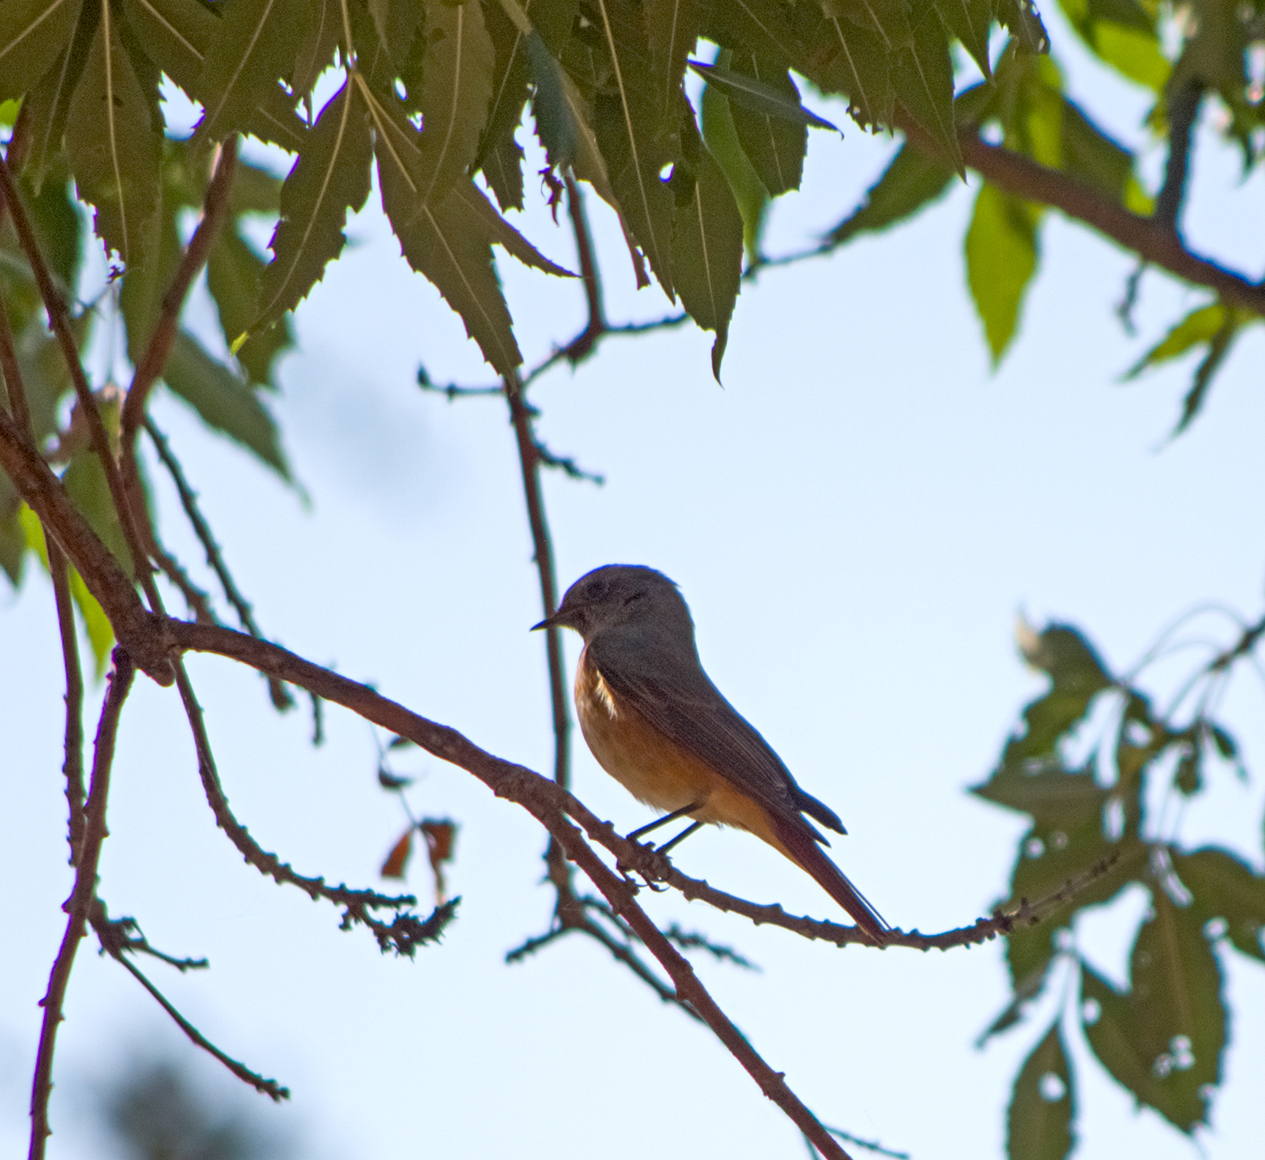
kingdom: Animalia
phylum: Chordata
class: Aves
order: Passeriformes
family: Muscicapidae
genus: Phoenicurus
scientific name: Phoenicurus phoenicurus
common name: Common redstart
